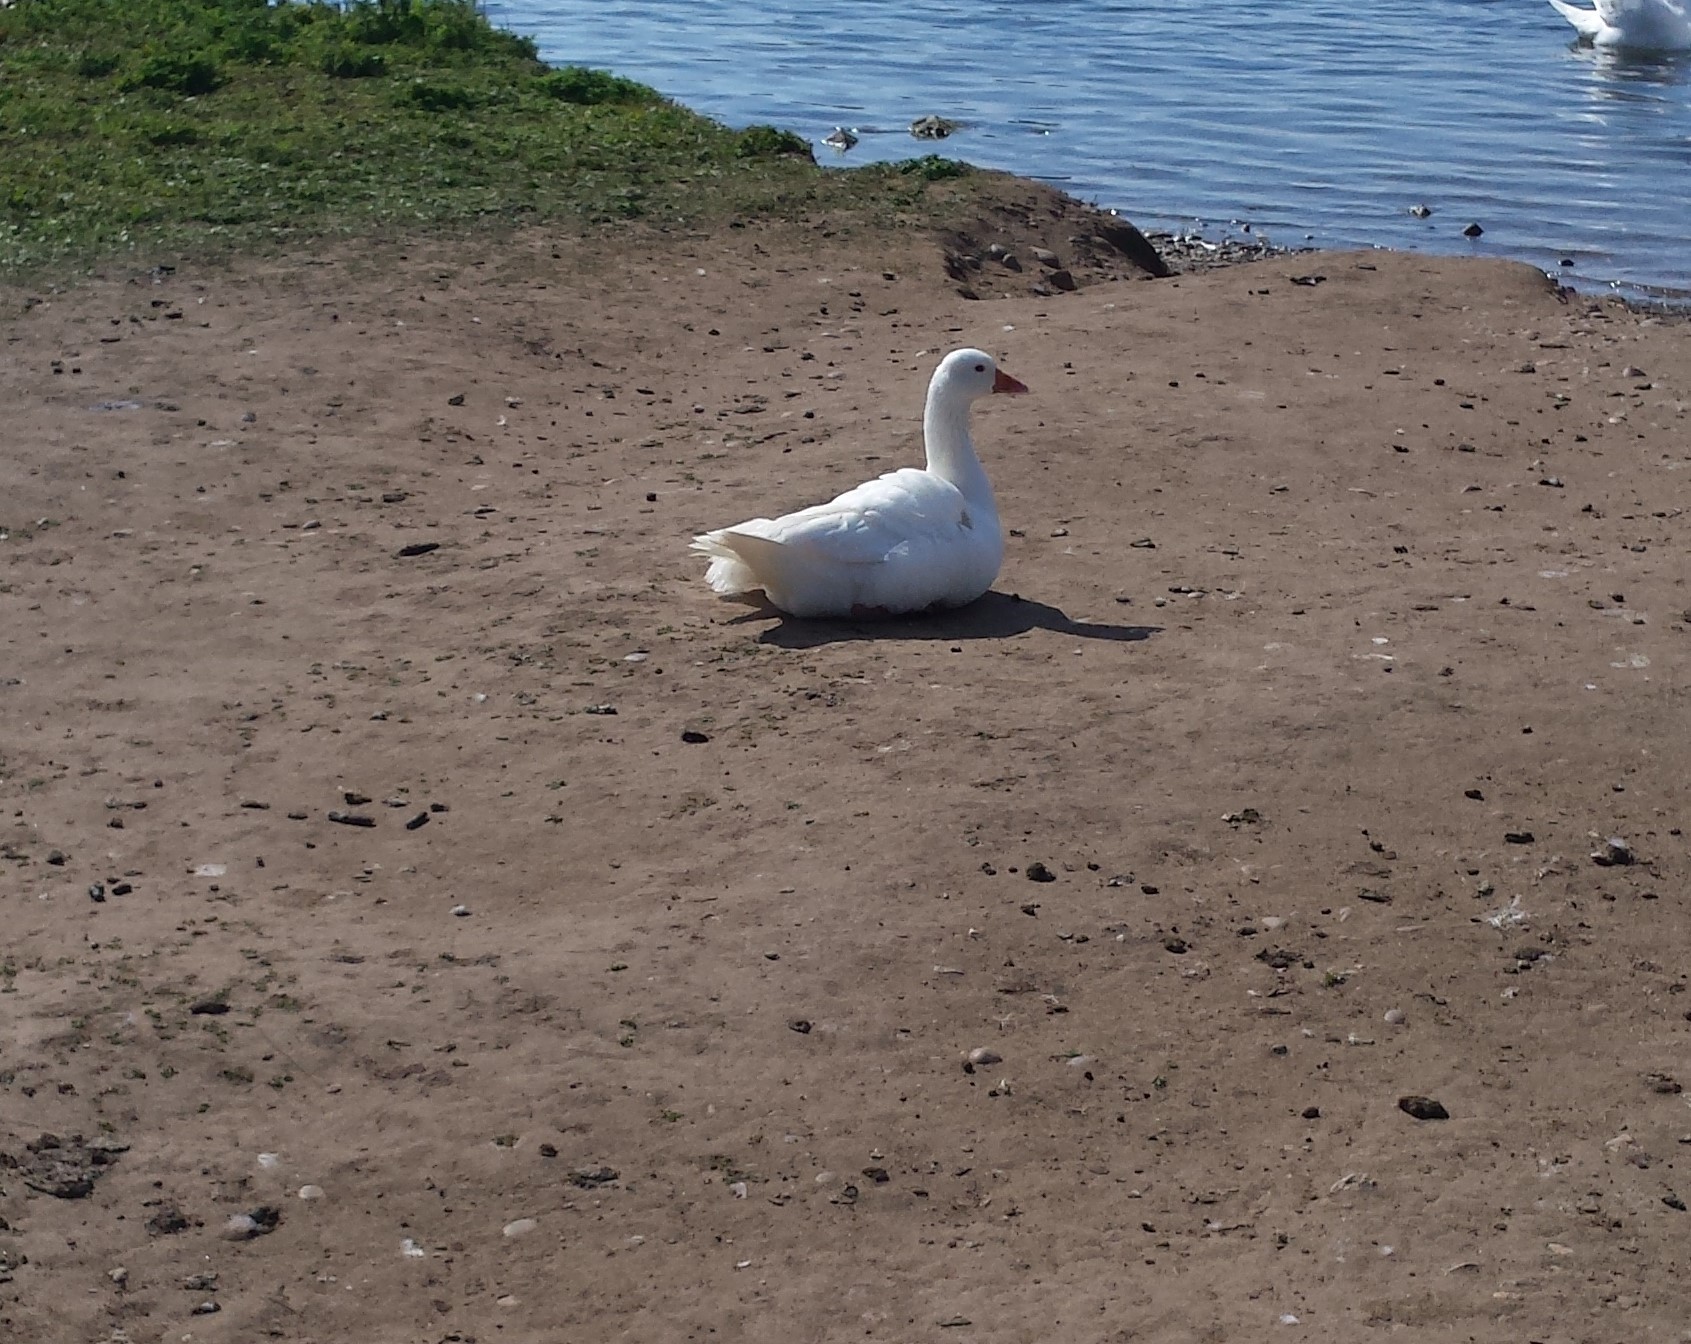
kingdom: Animalia
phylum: Chordata
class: Aves
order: Anseriformes
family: Anatidae
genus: Anser
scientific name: Anser anser
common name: Greylag goose
